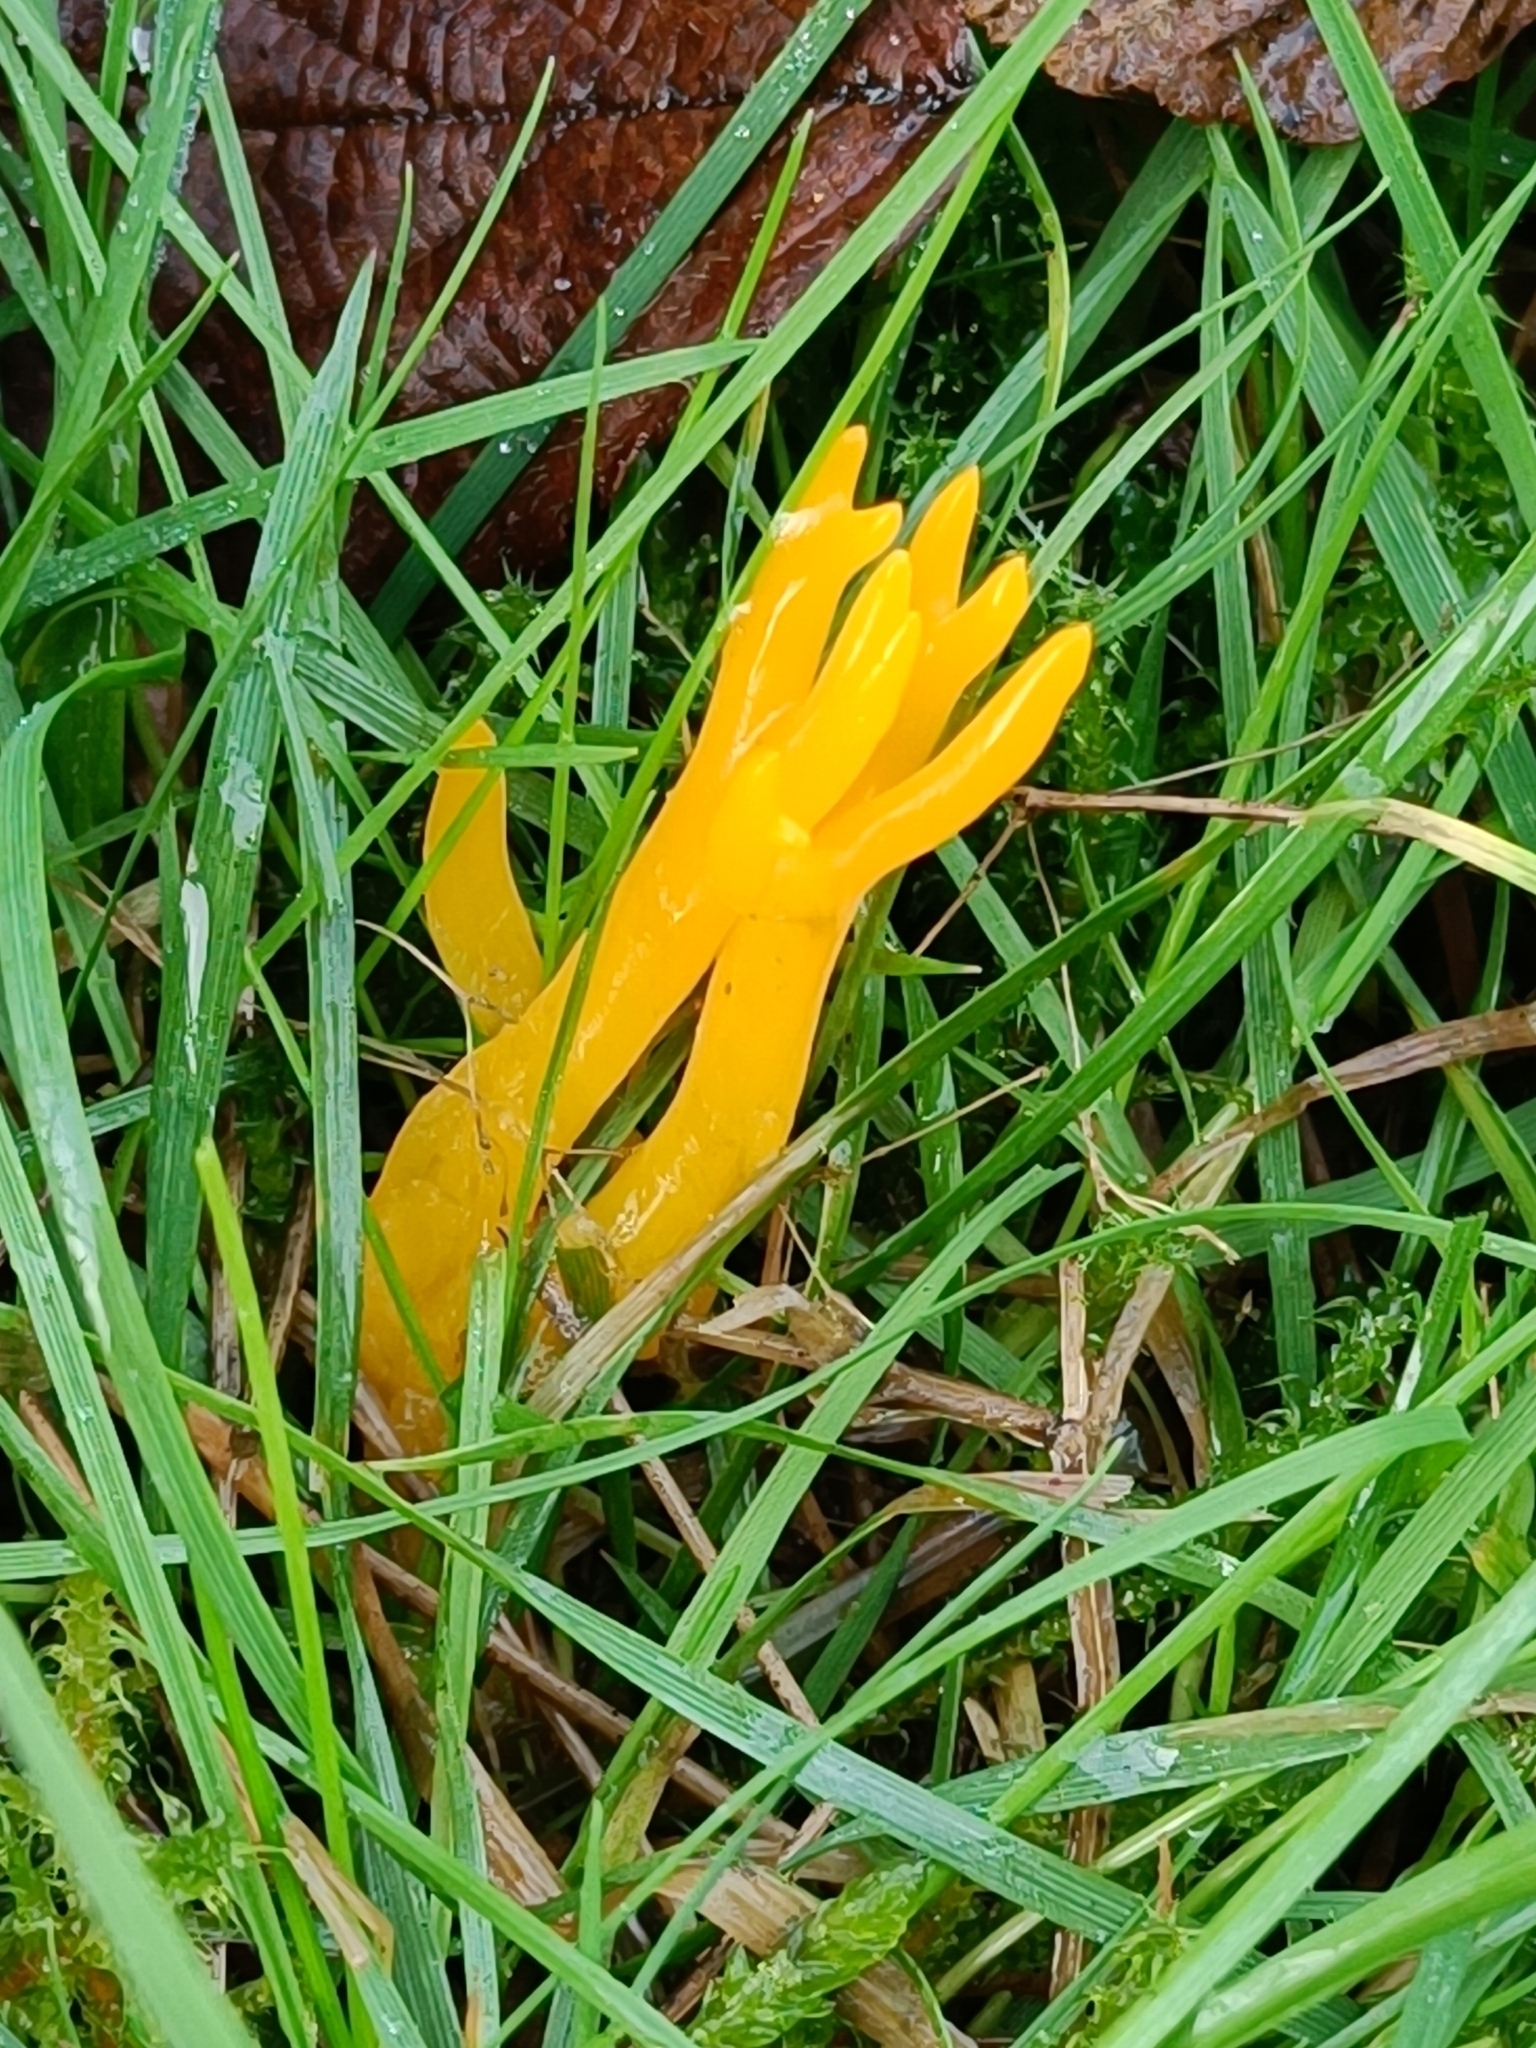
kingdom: Fungi
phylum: Basidiomycota
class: Dacrymycetes
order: Dacrymycetales
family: Dacrymycetaceae
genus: Calocera
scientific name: Calocera viscosa
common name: Yellow stagshorn
